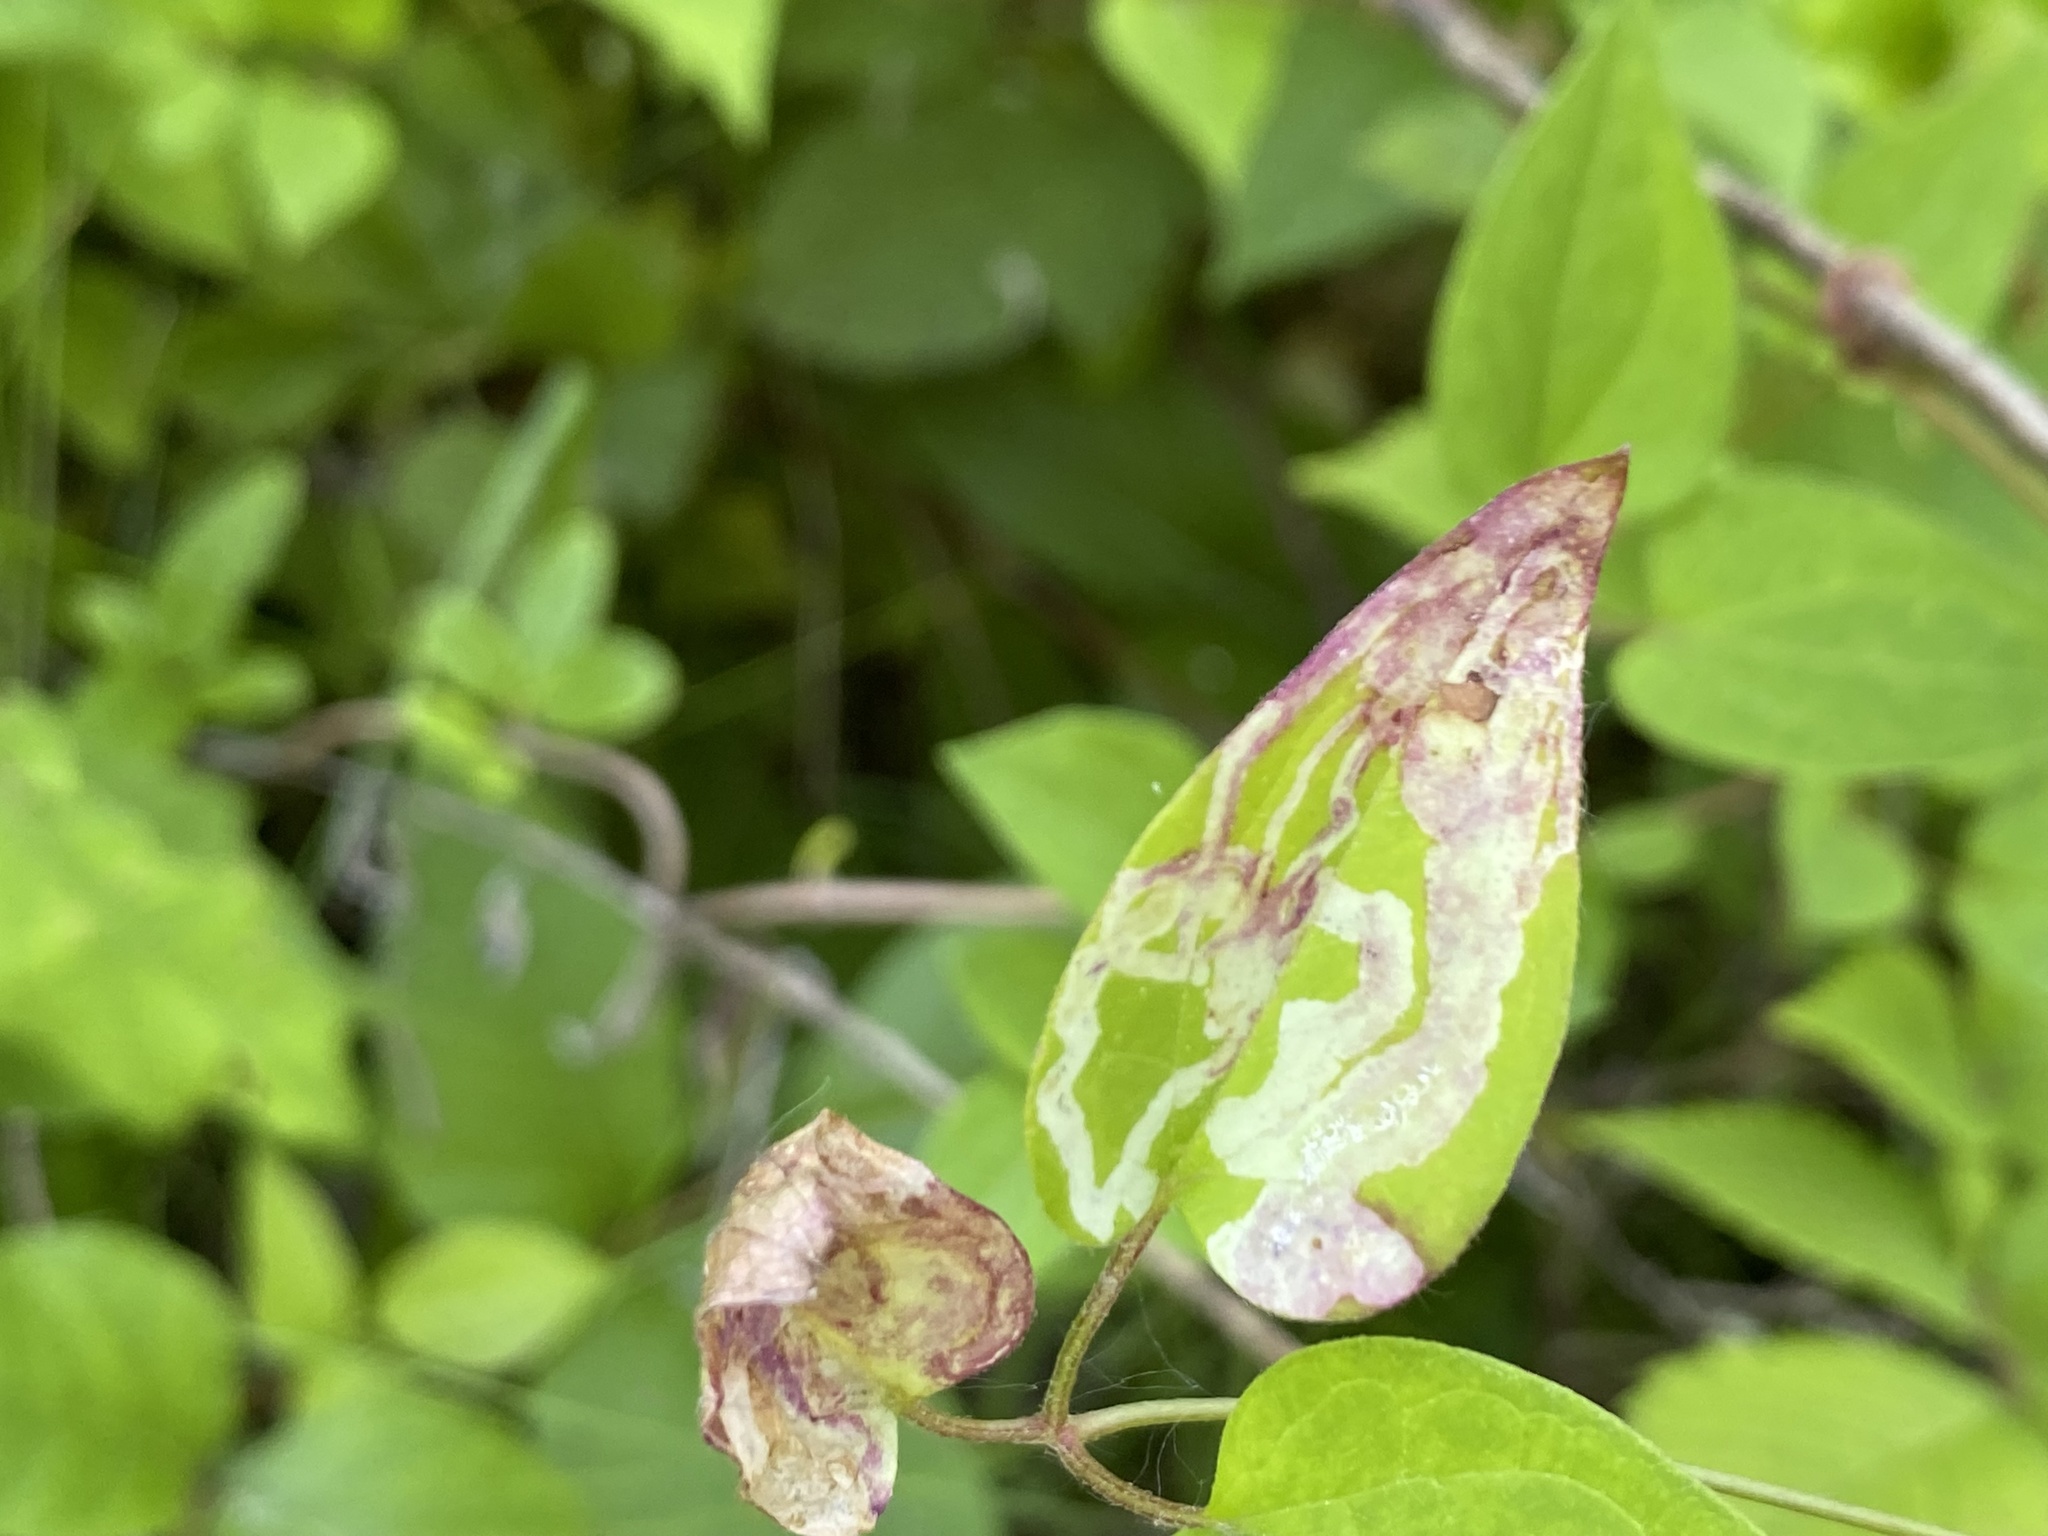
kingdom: Animalia
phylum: Arthropoda
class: Insecta
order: Diptera
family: Agromyzidae
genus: Phytomyza
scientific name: Phytomyza loewii
